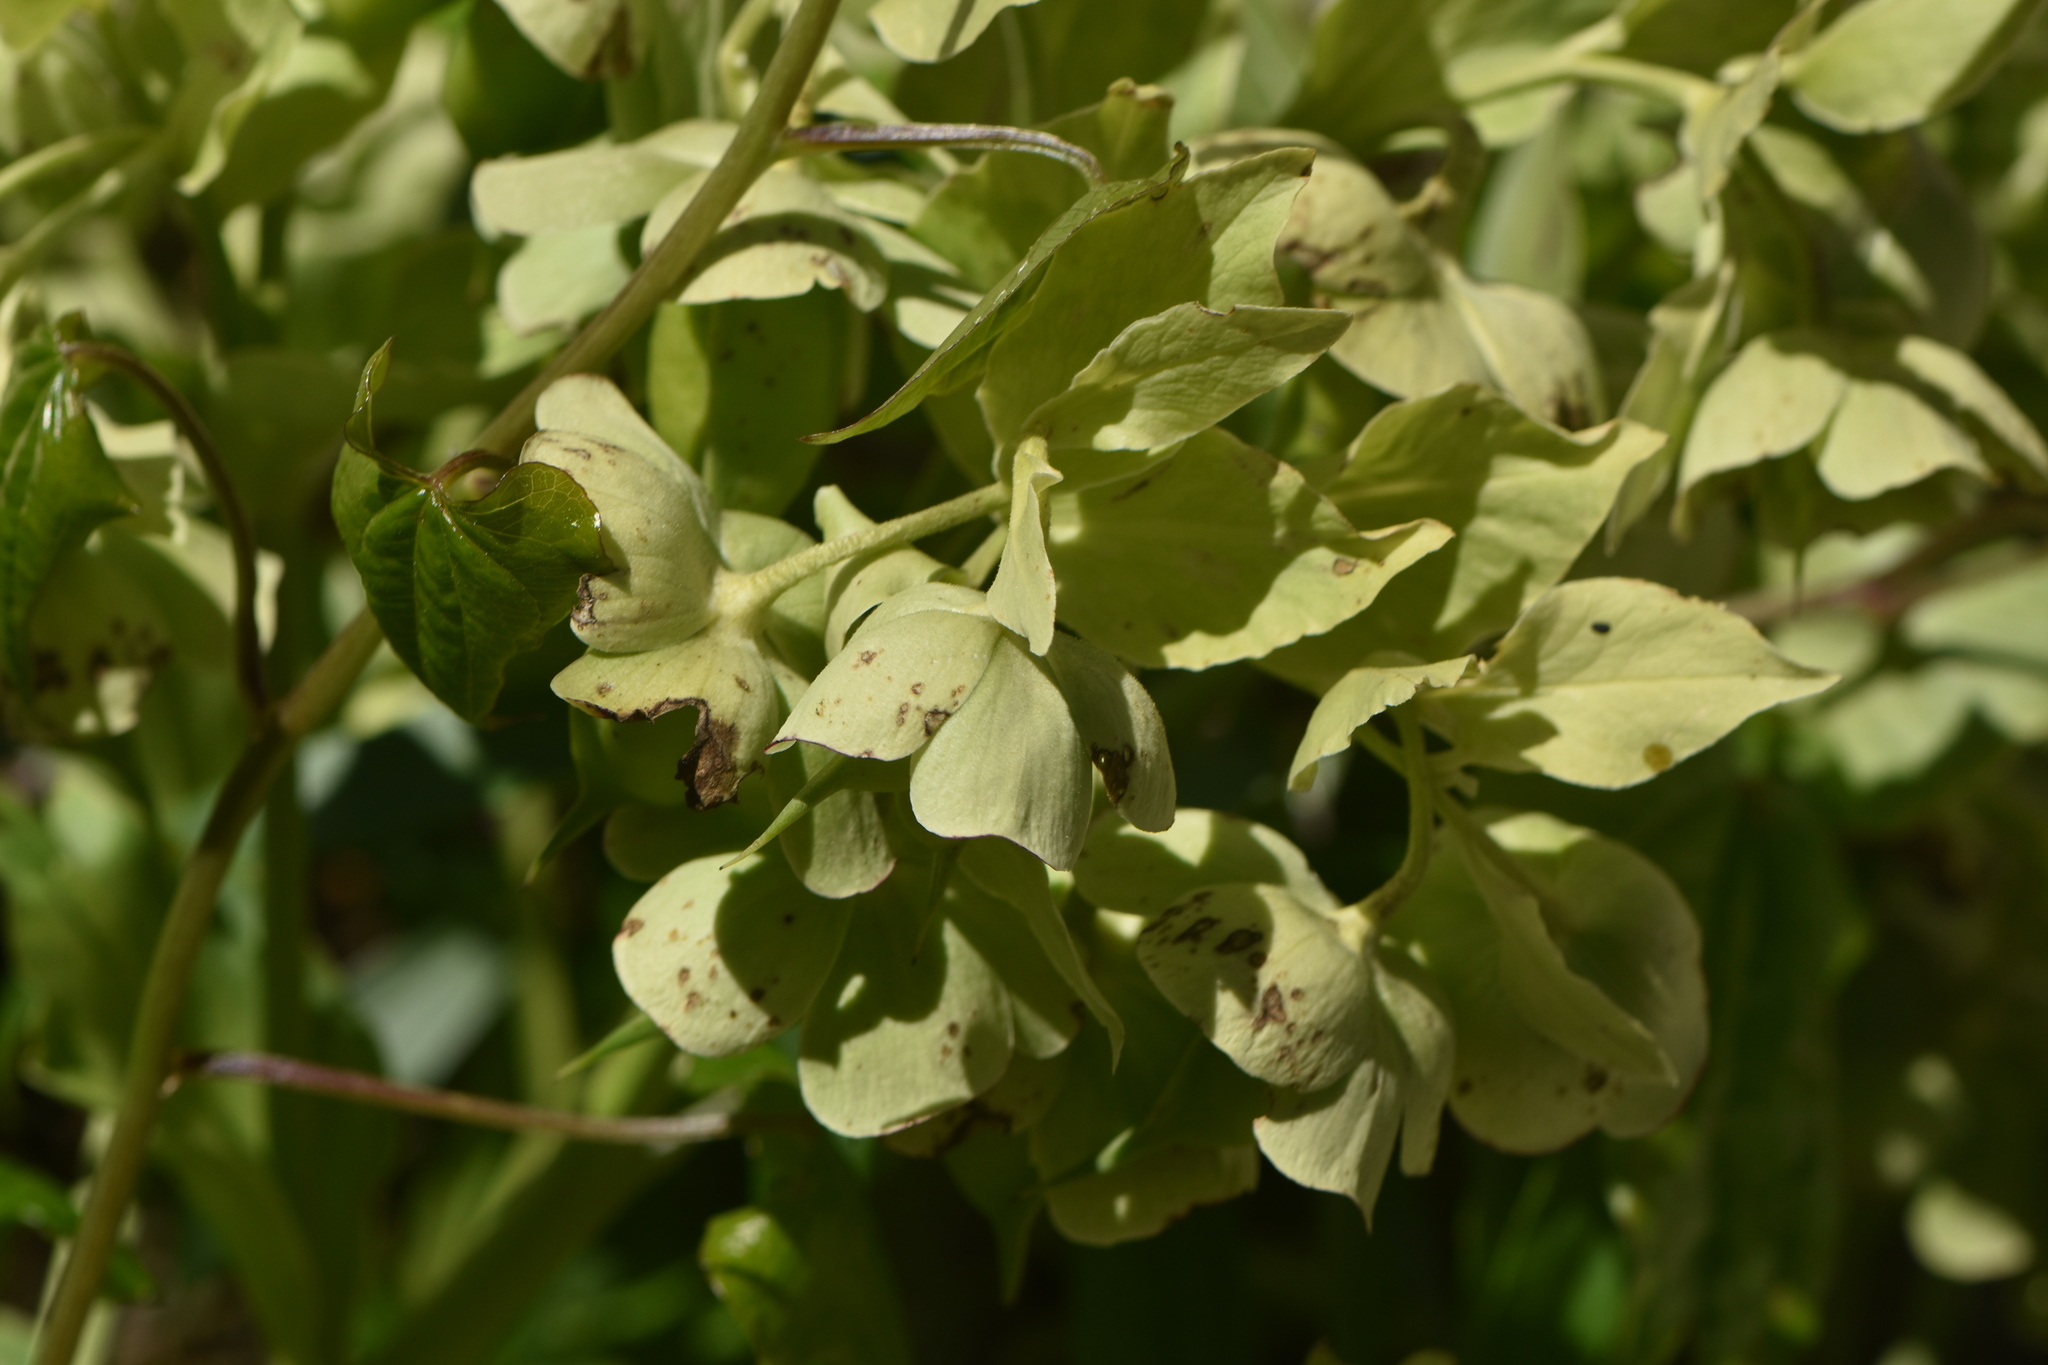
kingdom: Plantae
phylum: Tracheophyta
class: Magnoliopsida
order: Ranunculales
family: Ranunculaceae
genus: Helleborus
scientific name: Helleborus foetidus
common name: Stinking hellebore
